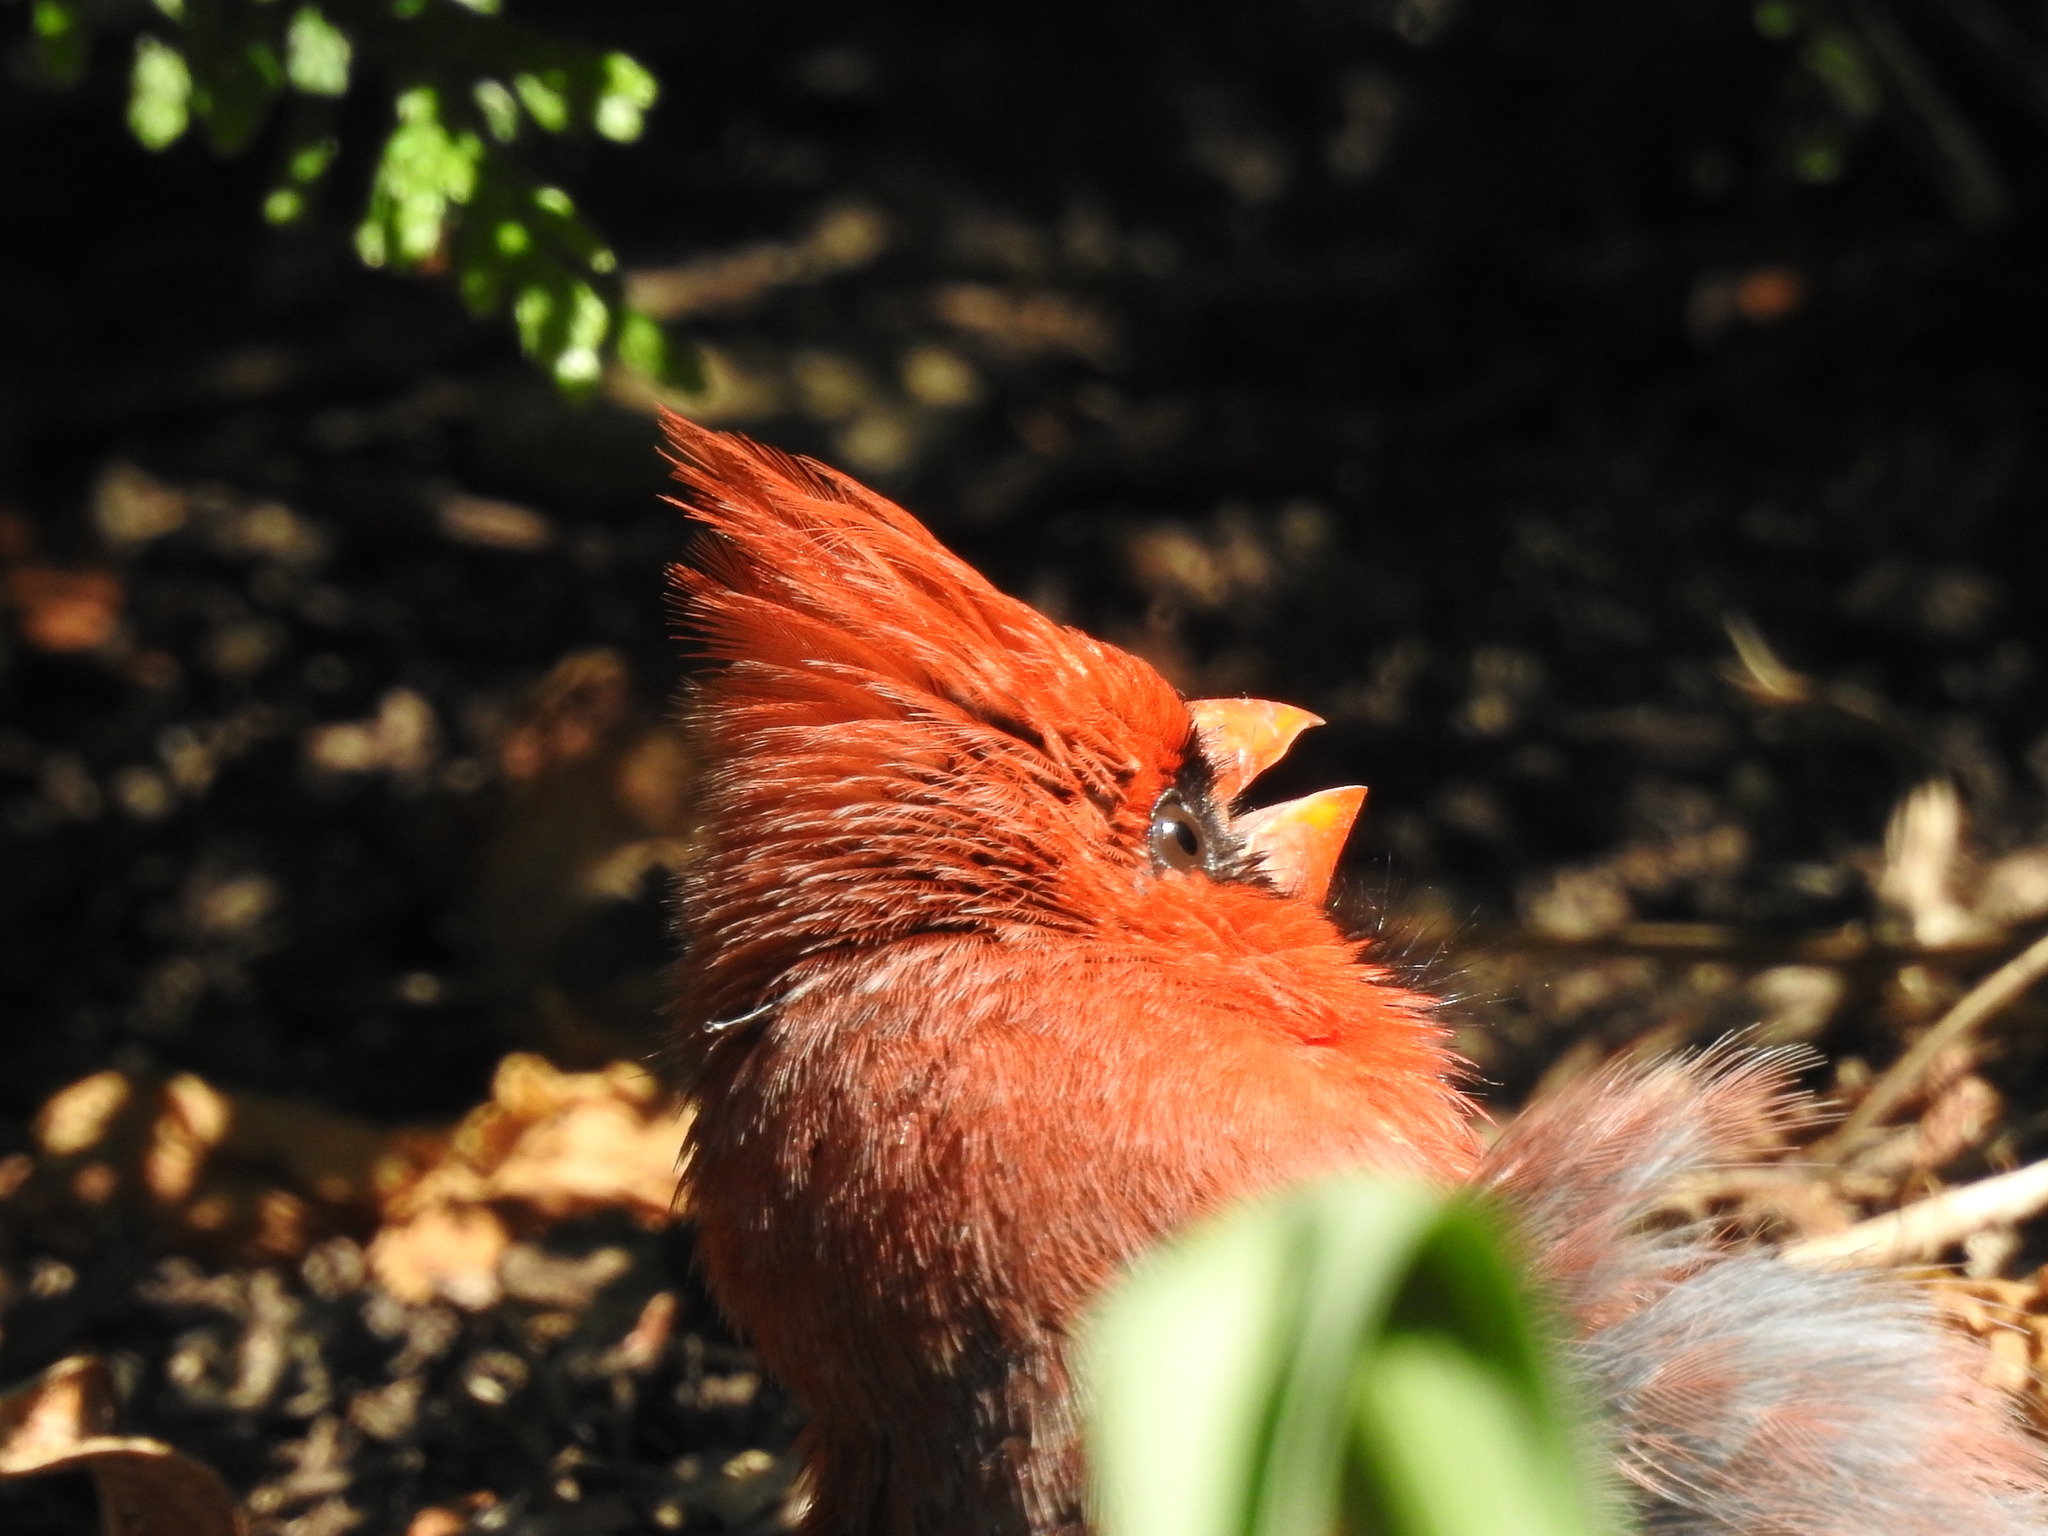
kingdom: Animalia
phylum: Chordata
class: Aves
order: Passeriformes
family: Cardinalidae
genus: Cardinalis
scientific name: Cardinalis cardinalis
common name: Northern cardinal
